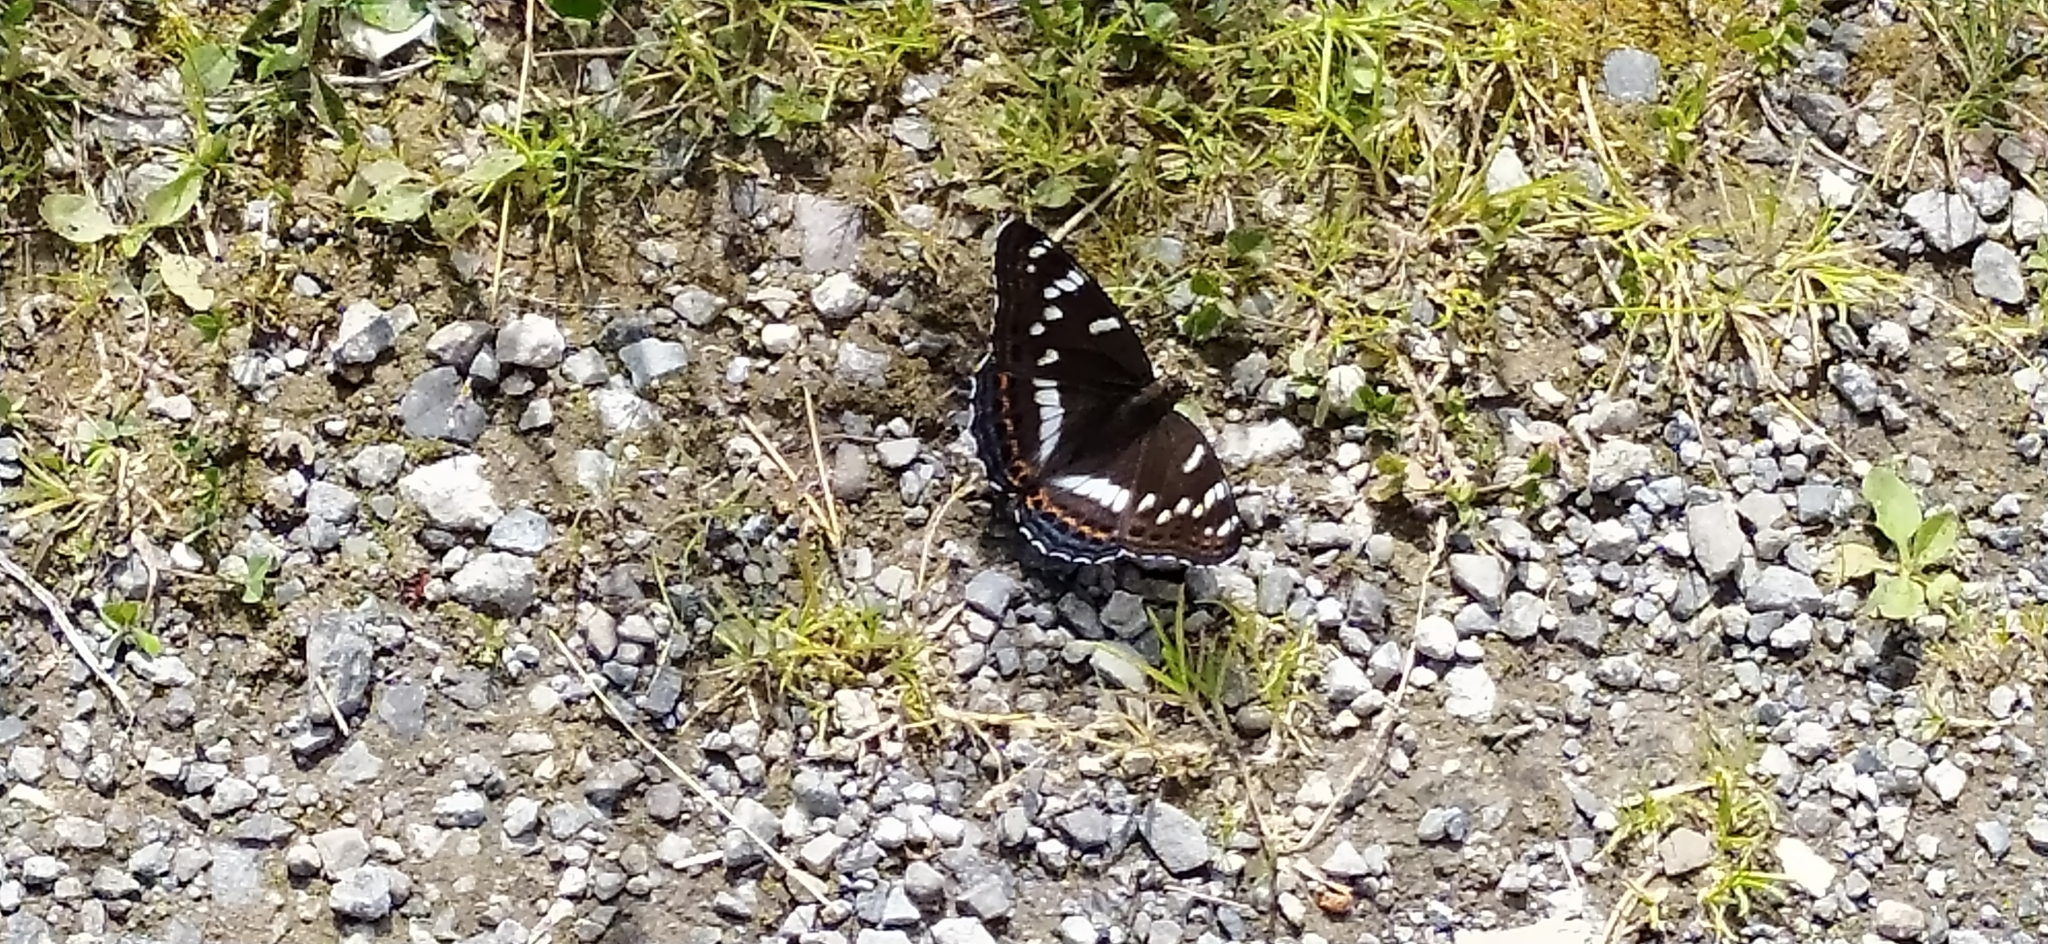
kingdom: Animalia
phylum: Arthropoda
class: Insecta
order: Lepidoptera
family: Nymphalidae
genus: Limenitis
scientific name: Limenitis populi
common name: Poplar admiral
